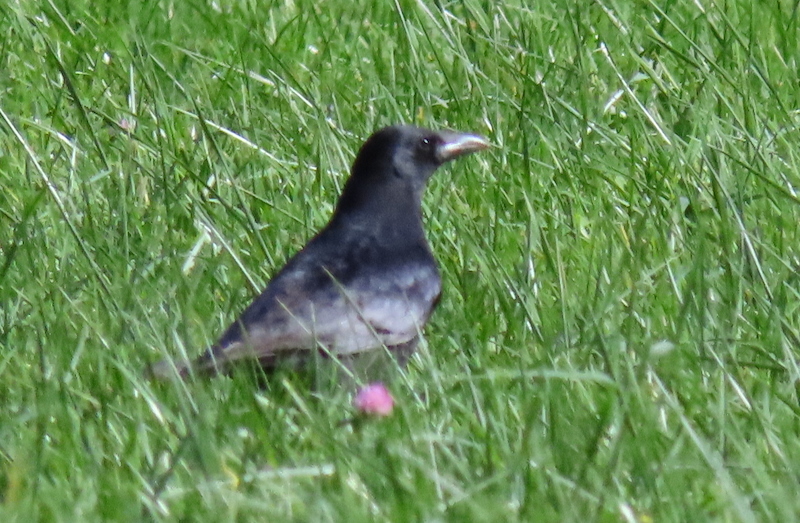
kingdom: Animalia
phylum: Chordata
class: Aves
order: Passeriformes
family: Corvidae
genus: Corvus
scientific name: Corvus corone
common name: Carrion crow
